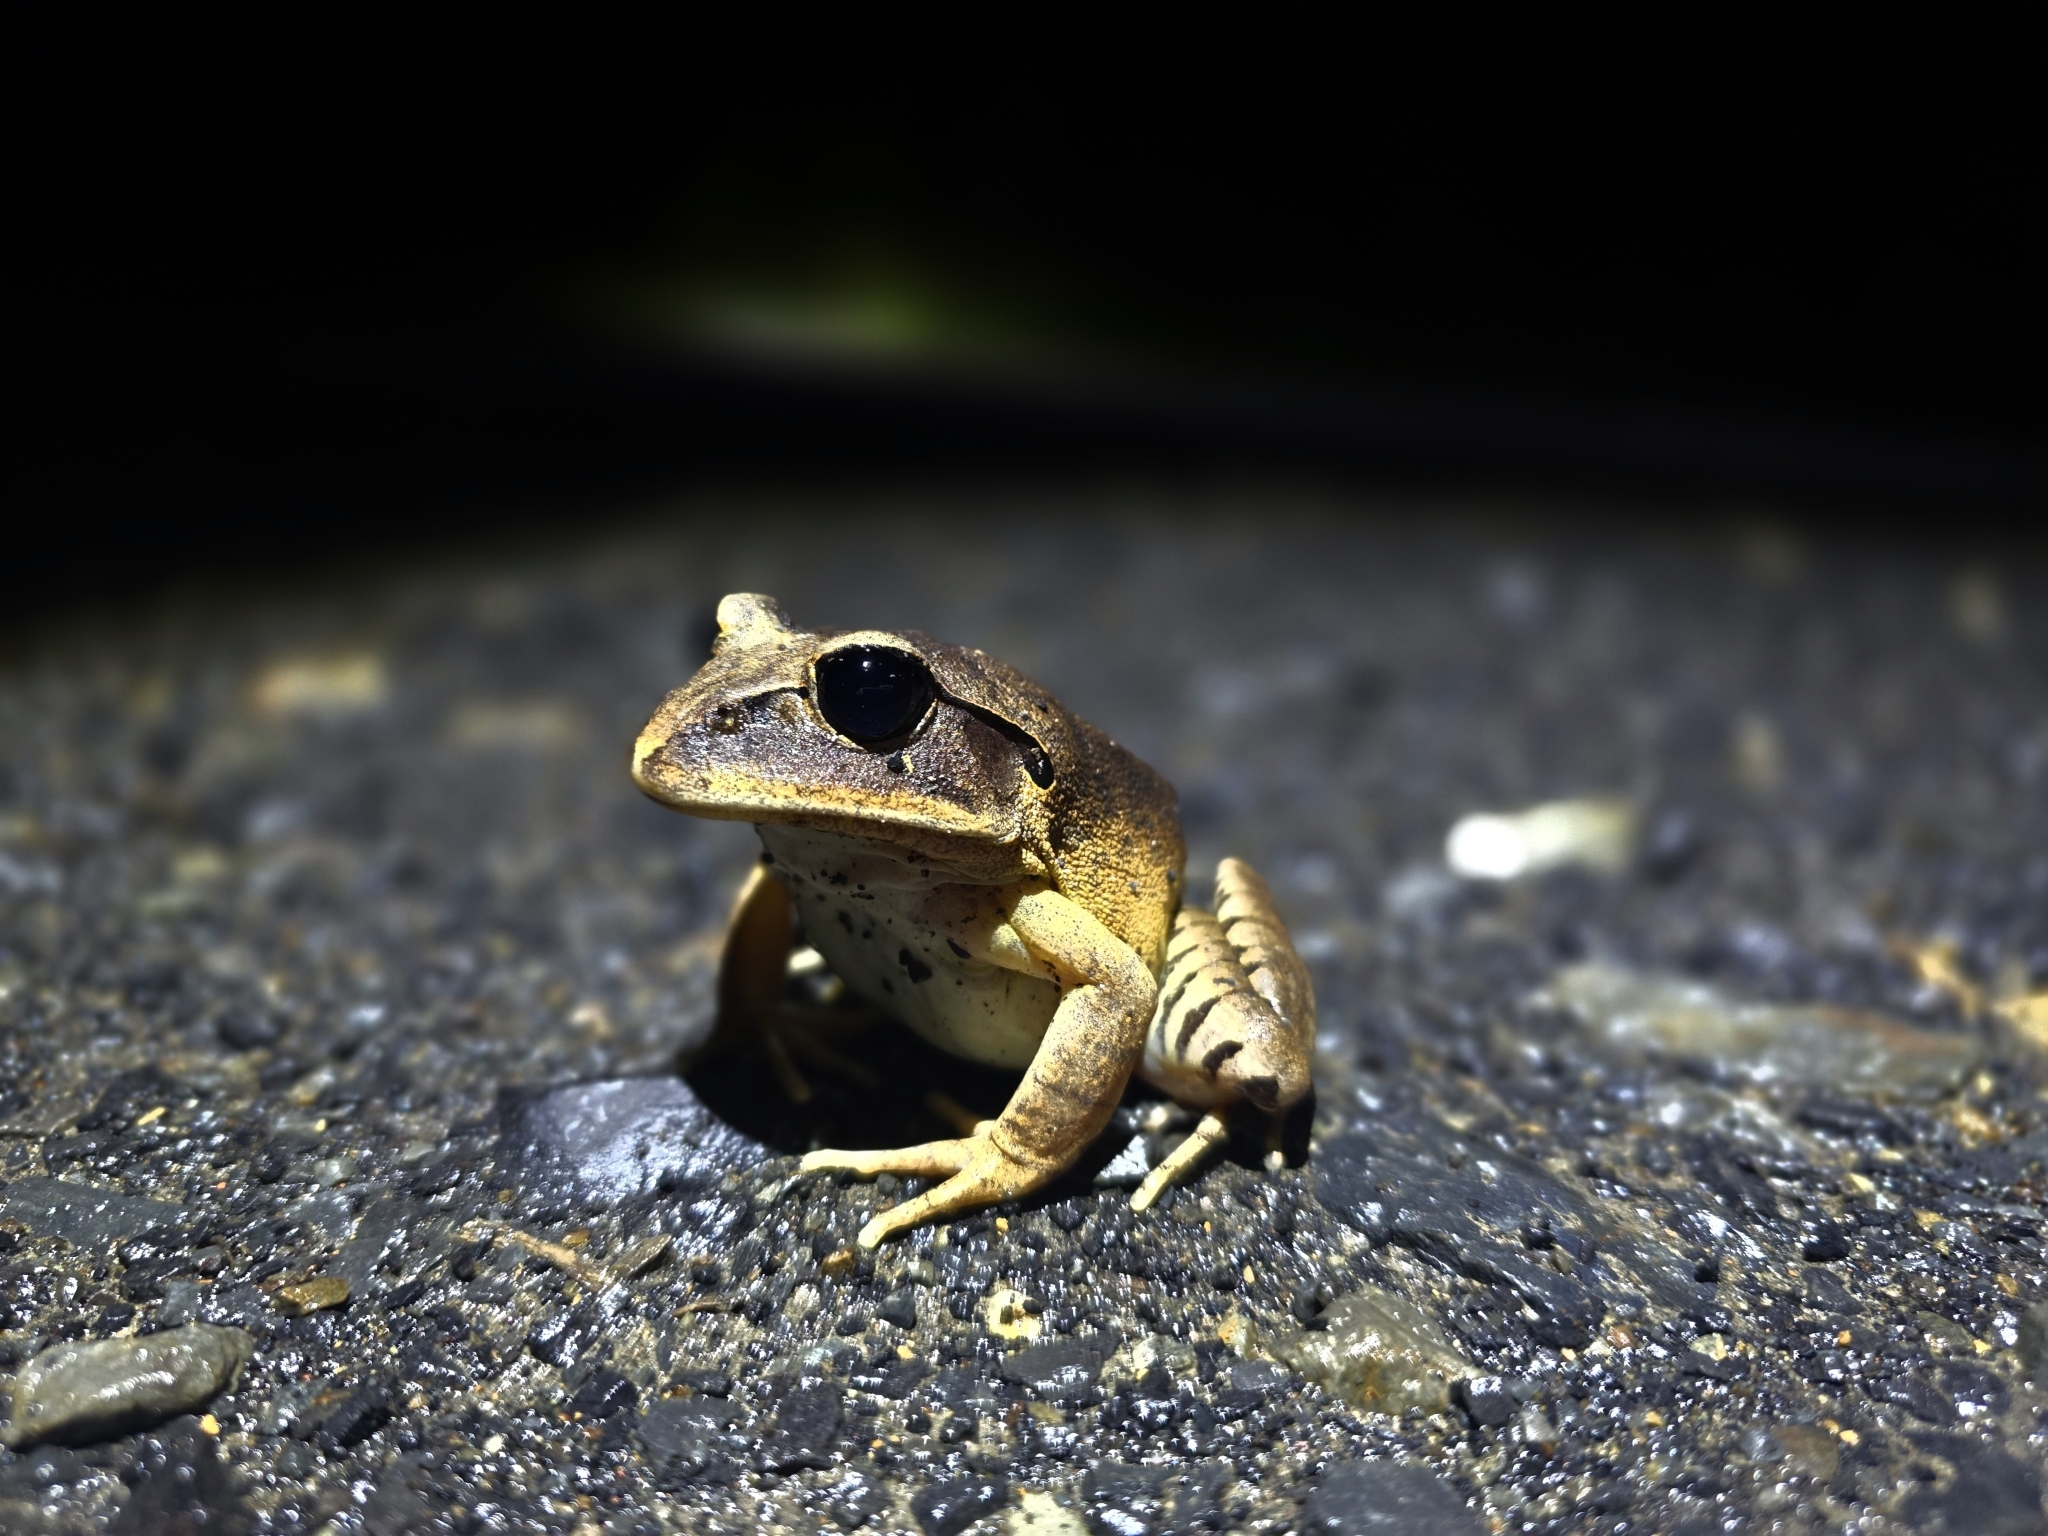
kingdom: Animalia
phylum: Chordata
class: Amphibia
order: Anura
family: Myobatrachidae
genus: Mixophyes
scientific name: Mixophyes fasciolatus
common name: Great barred river-frog
